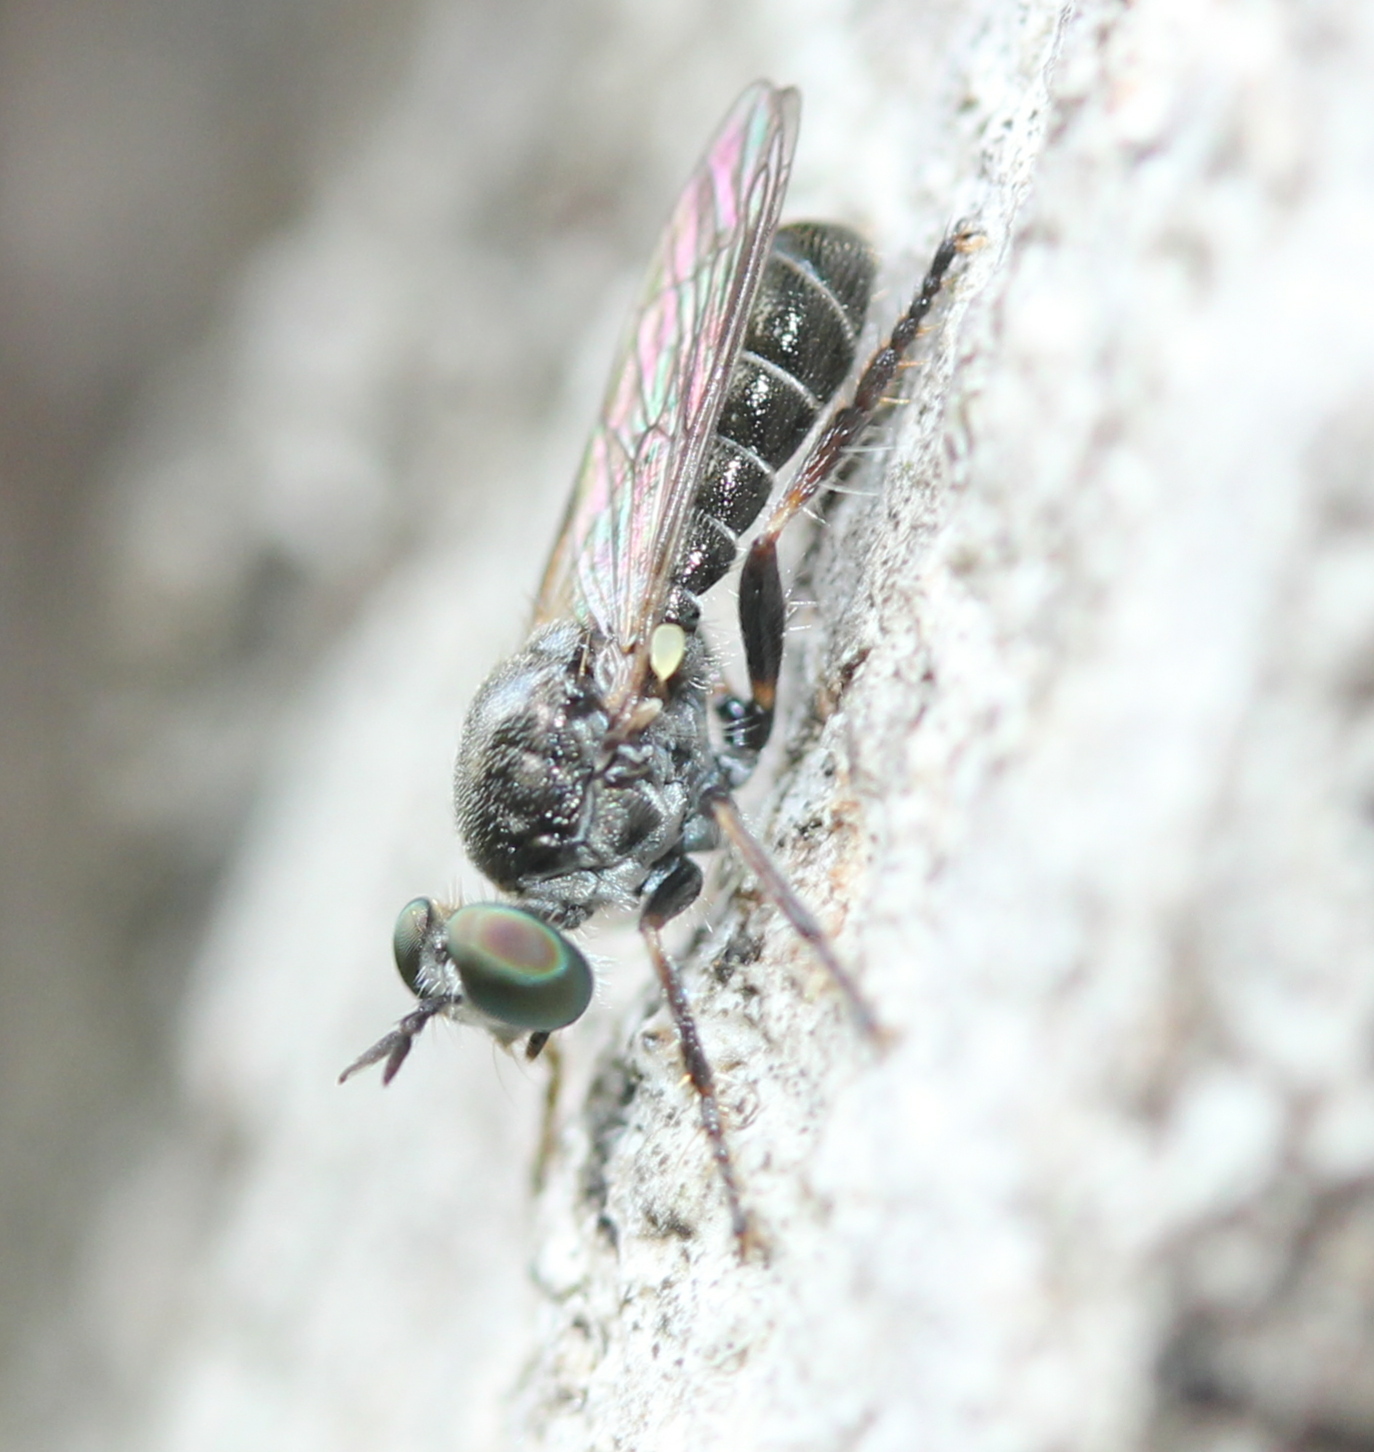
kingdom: Animalia
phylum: Arthropoda
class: Insecta
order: Diptera
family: Asilidae
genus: Atomosia
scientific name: Atomosia puella
